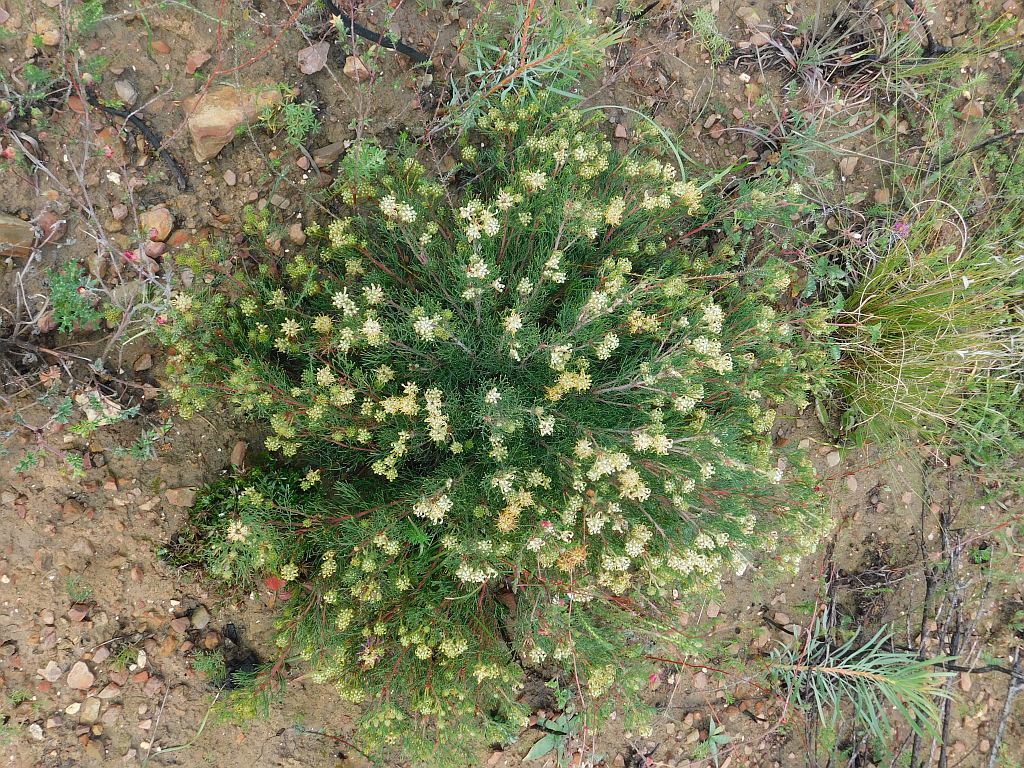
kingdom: Plantae
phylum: Tracheophyta
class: Magnoliopsida
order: Proteales
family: Proteaceae
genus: Serruria
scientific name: Serruria
